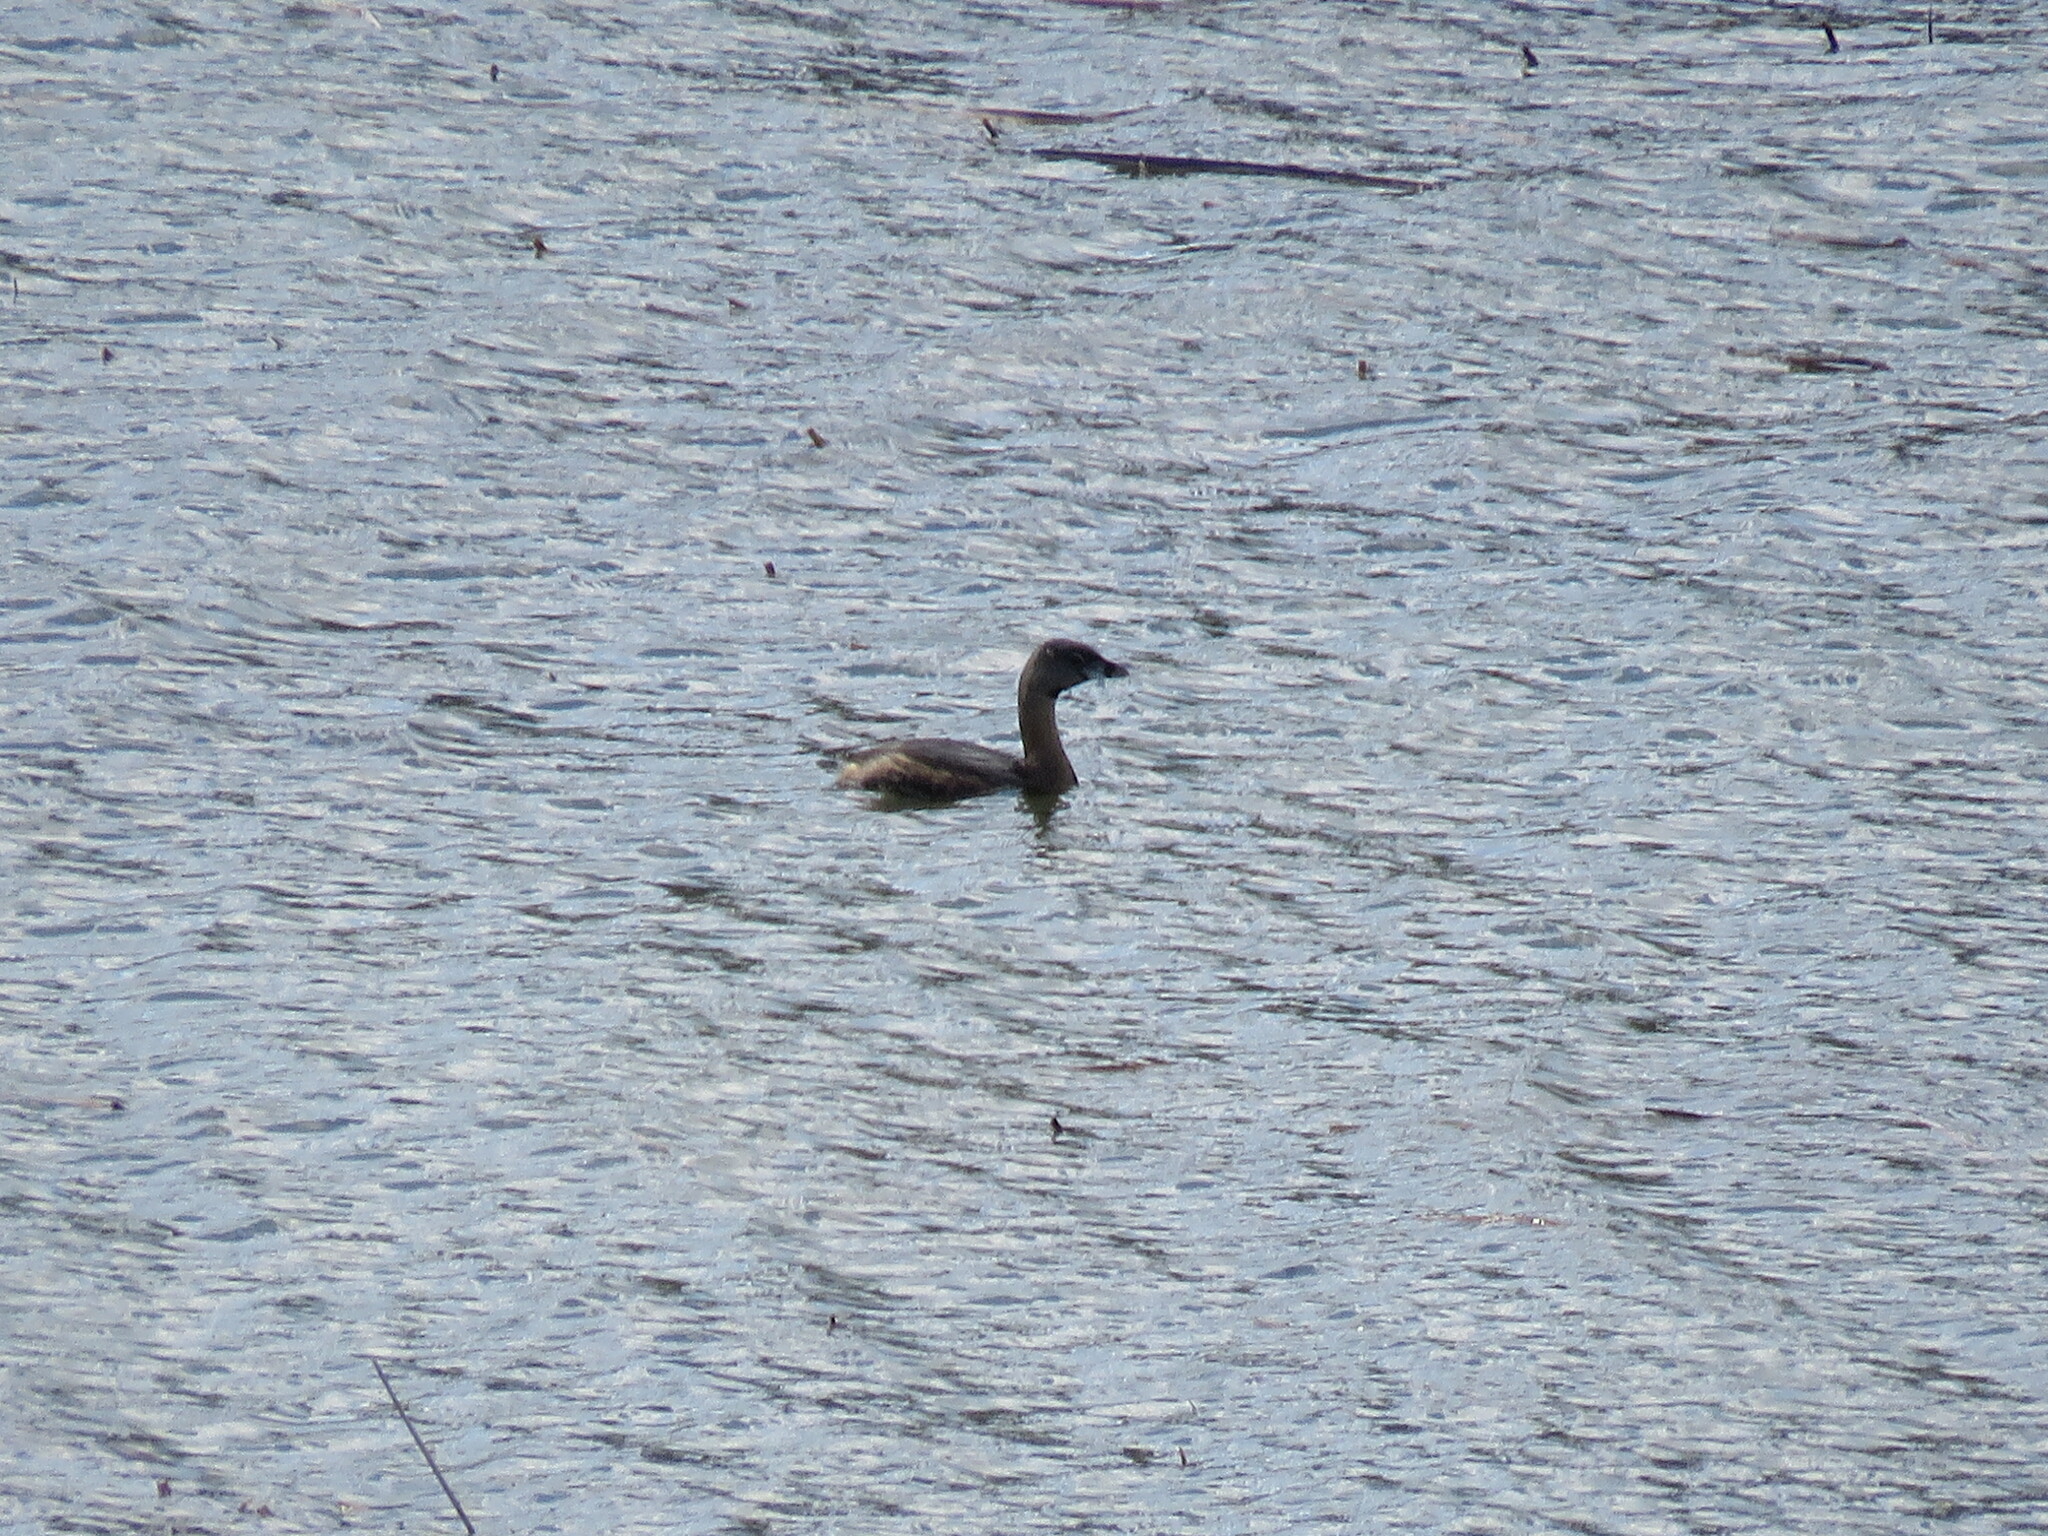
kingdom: Animalia
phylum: Chordata
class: Aves
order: Podicipediformes
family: Podicipedidae
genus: Podilymbus
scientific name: Podilymbus podiceps
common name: Pied-billed grebe
